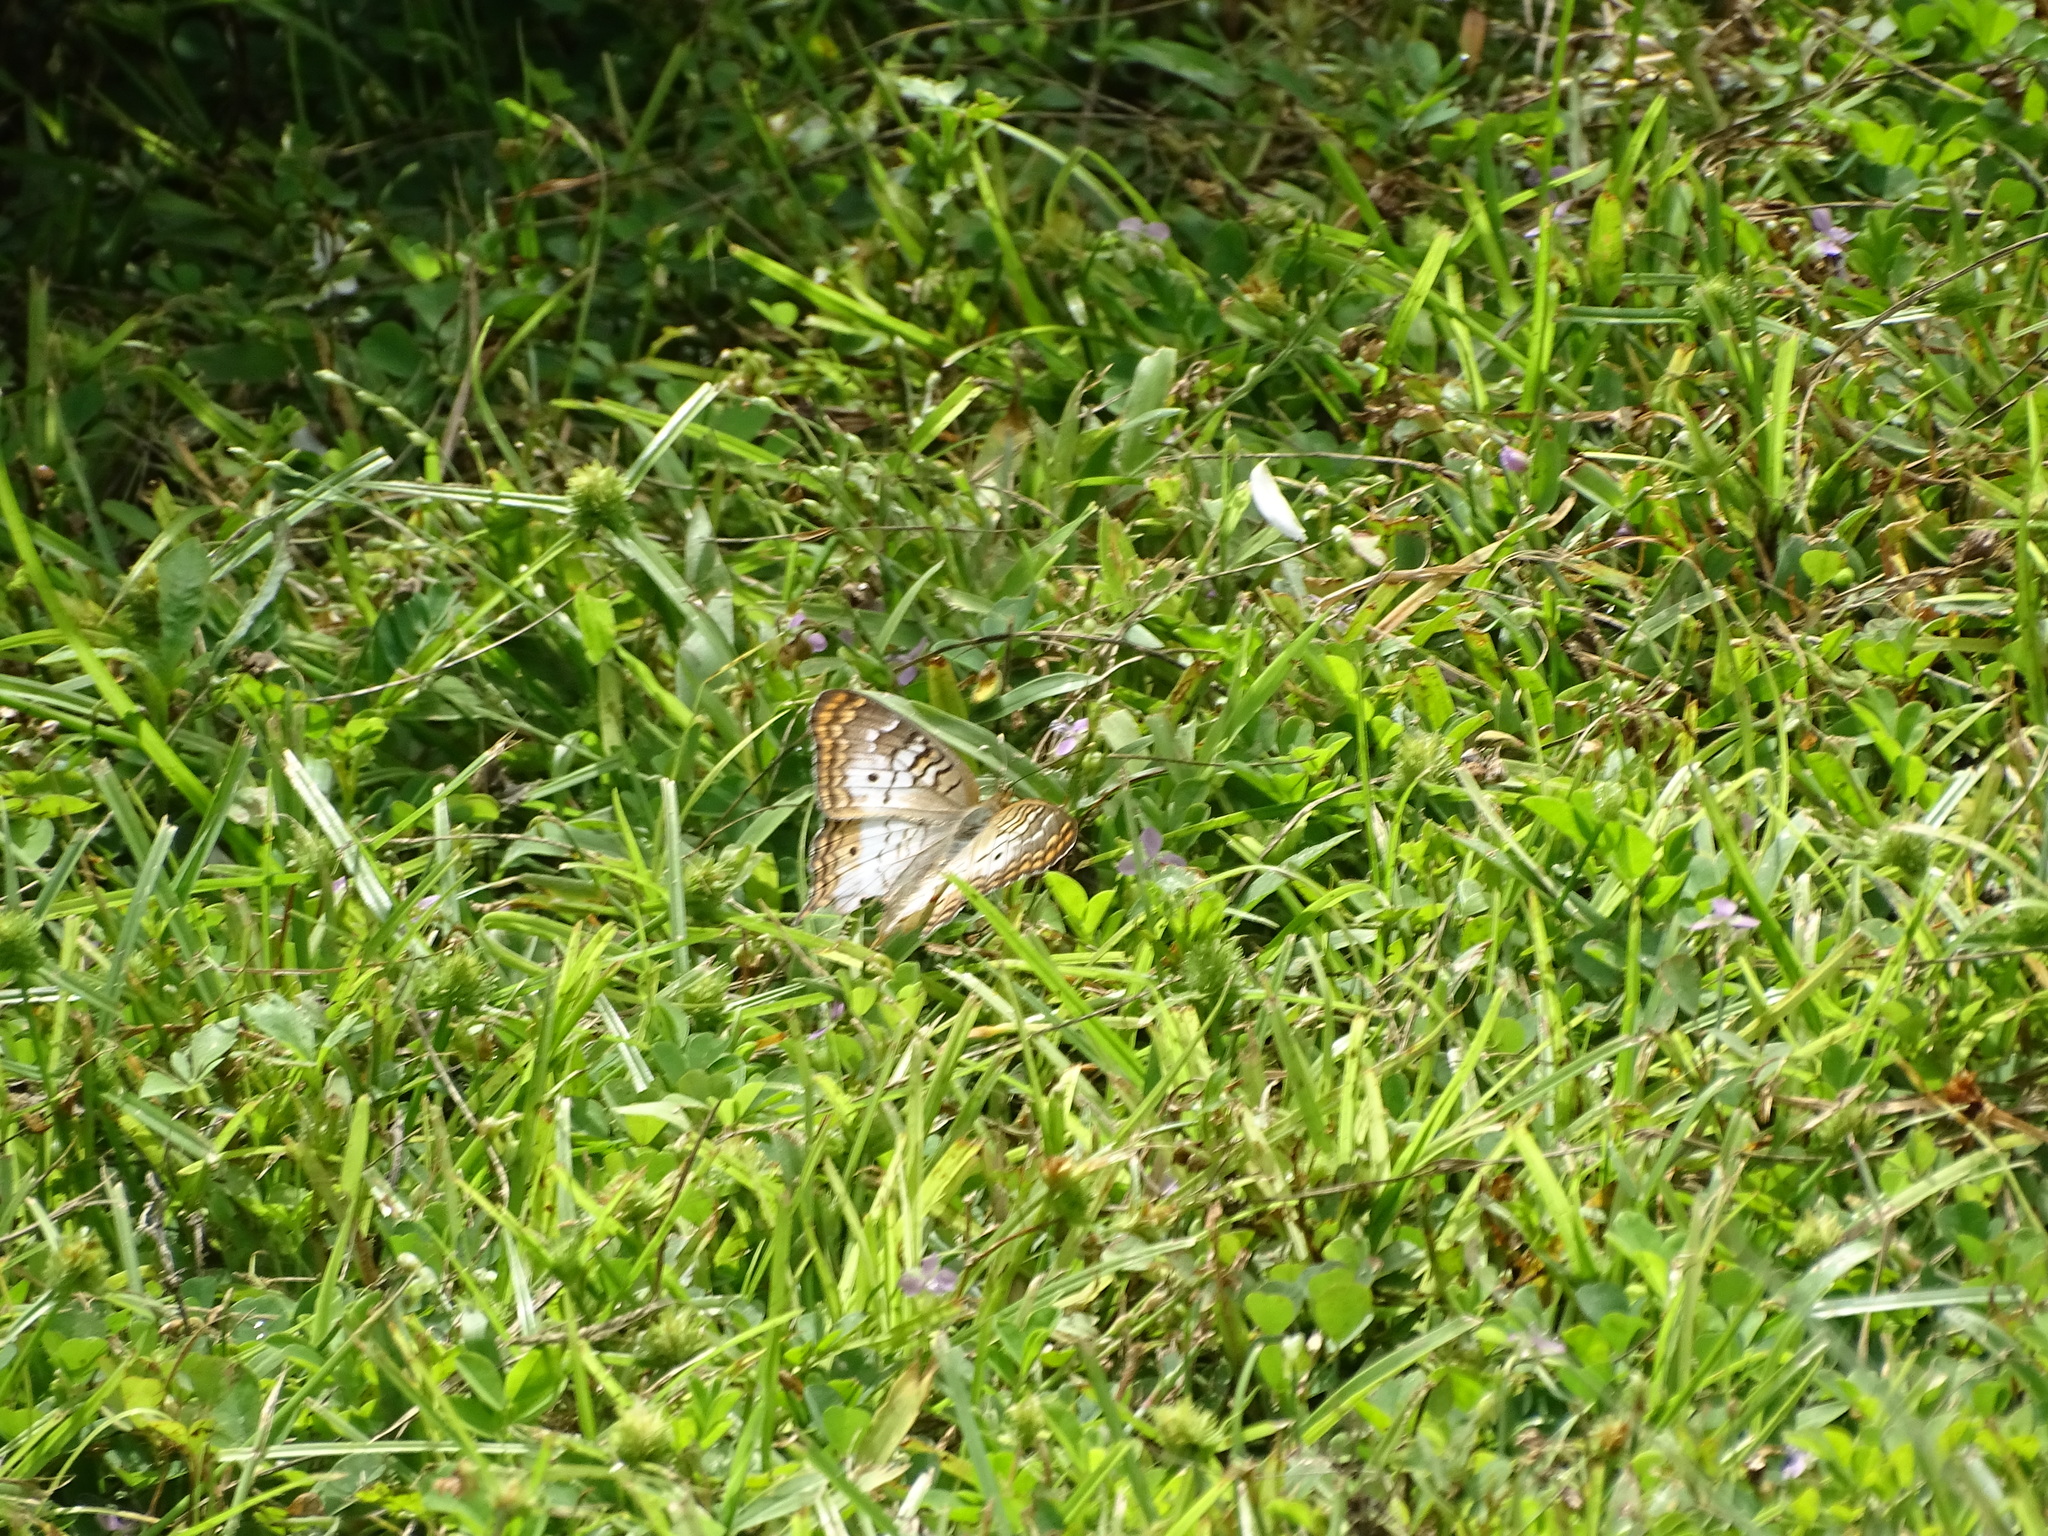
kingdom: Animalia
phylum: Arthropoda
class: Insecta
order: Lepidoptera
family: Nymphalidae
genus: Anartia
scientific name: Anartia jatrophae
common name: White peacock
